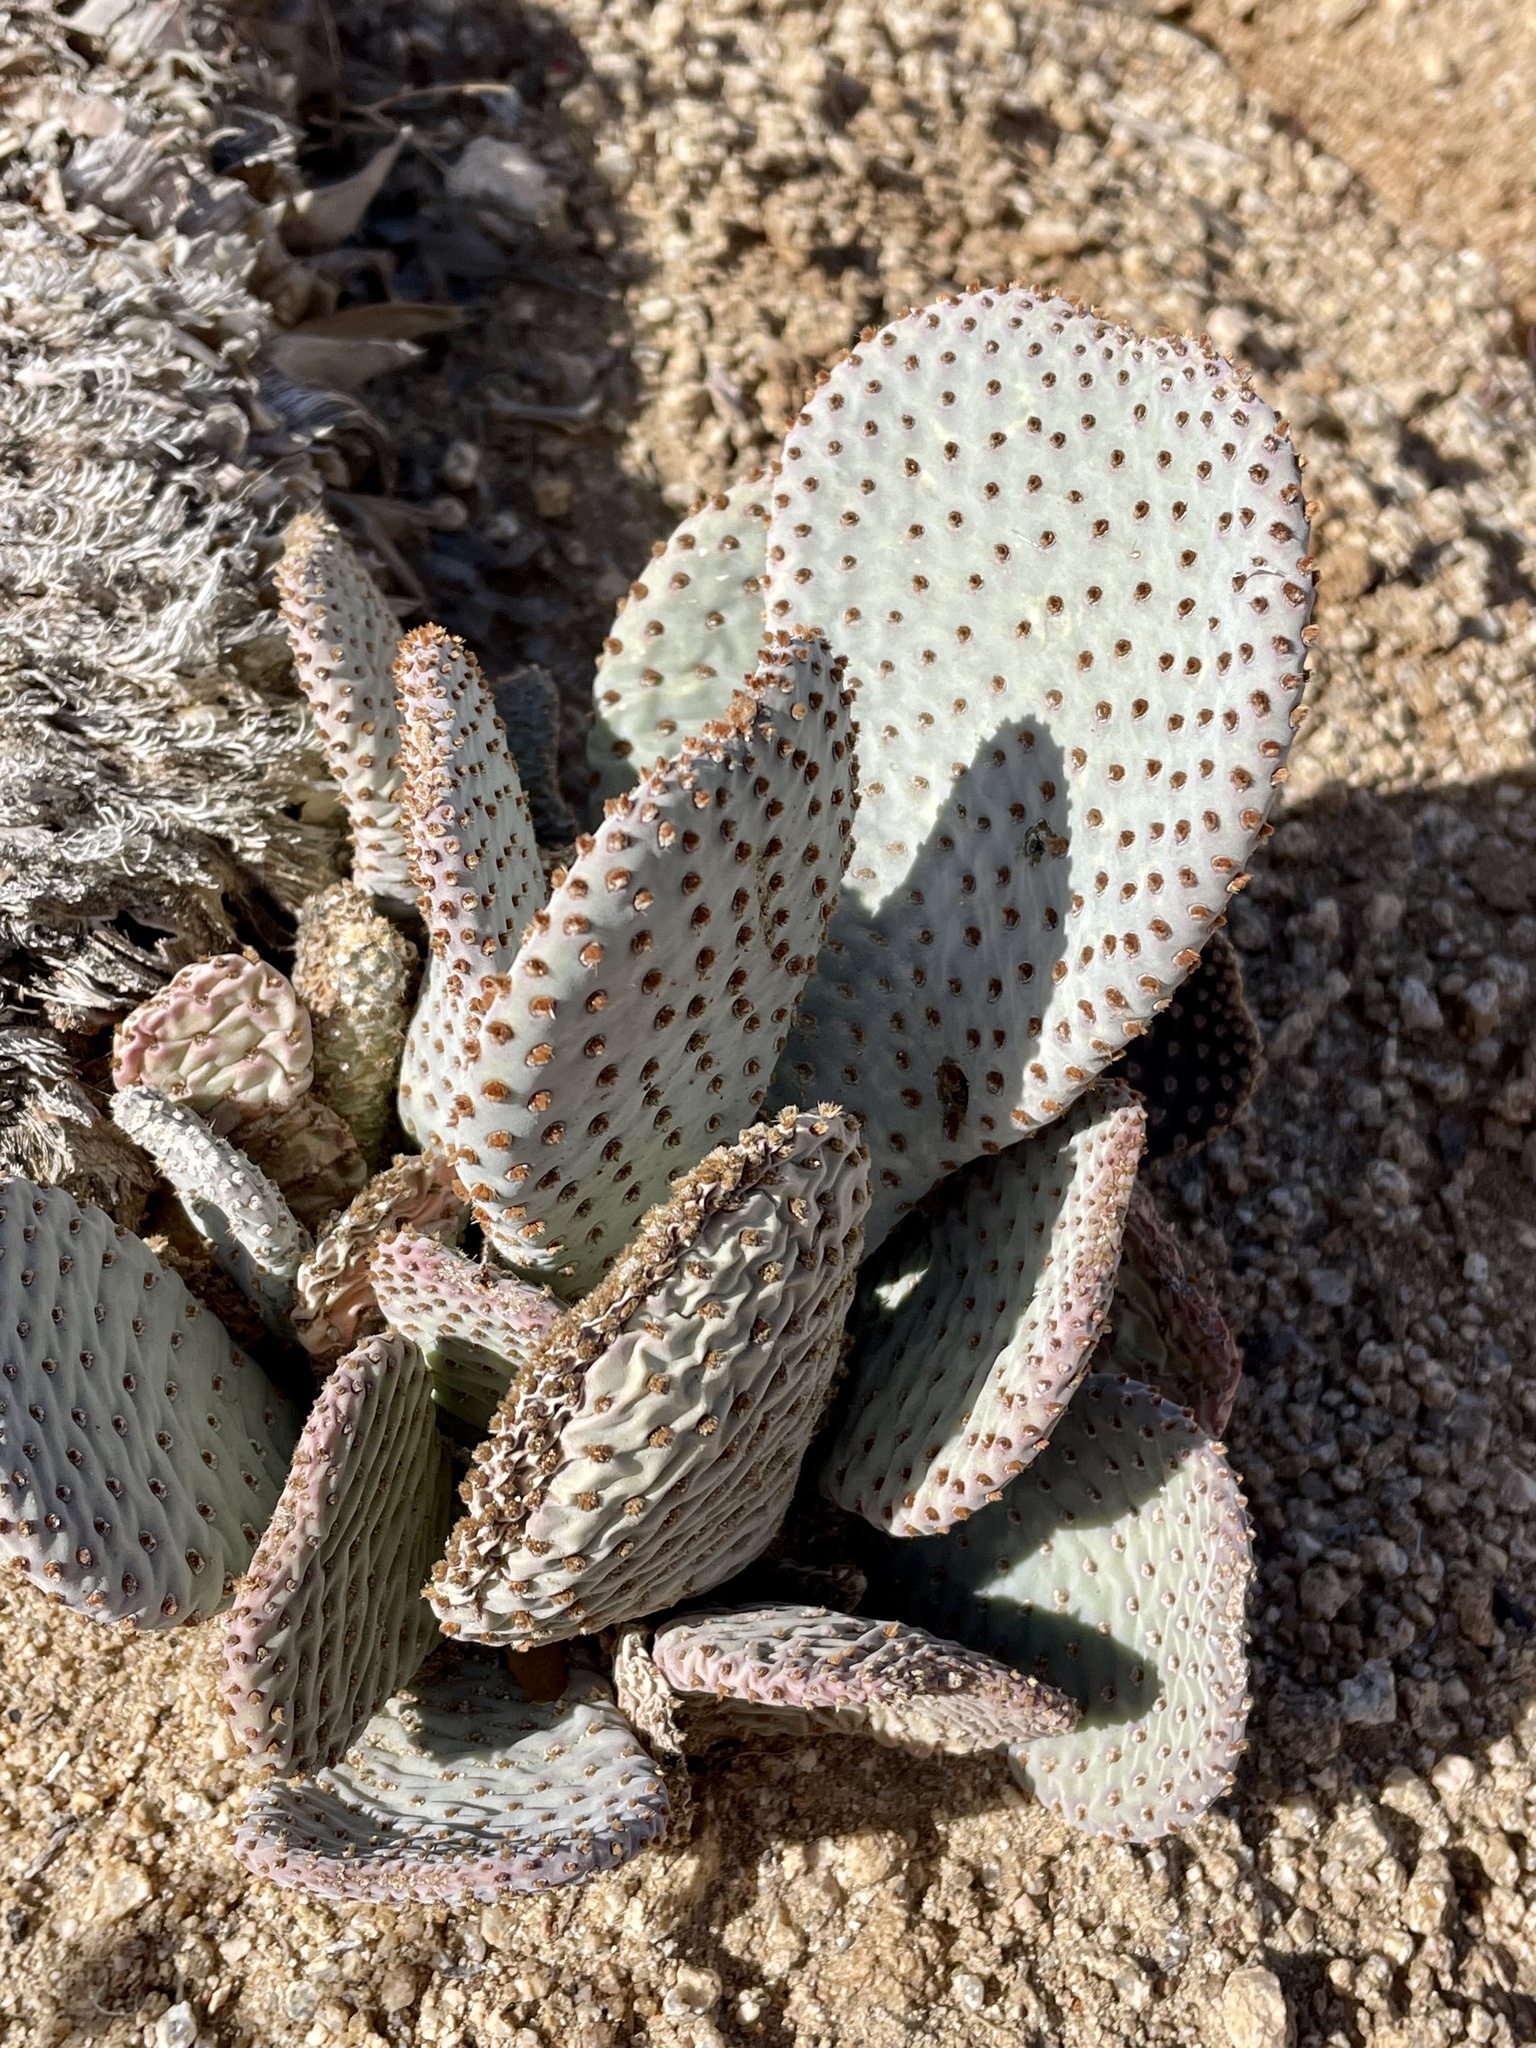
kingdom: Plantae
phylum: Tracheophyta
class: Magnoliopsida
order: Caryophyllales
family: Cactaceae
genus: Opuntia
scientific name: Opuntia basilaris
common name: Beavertail prickly-pear
